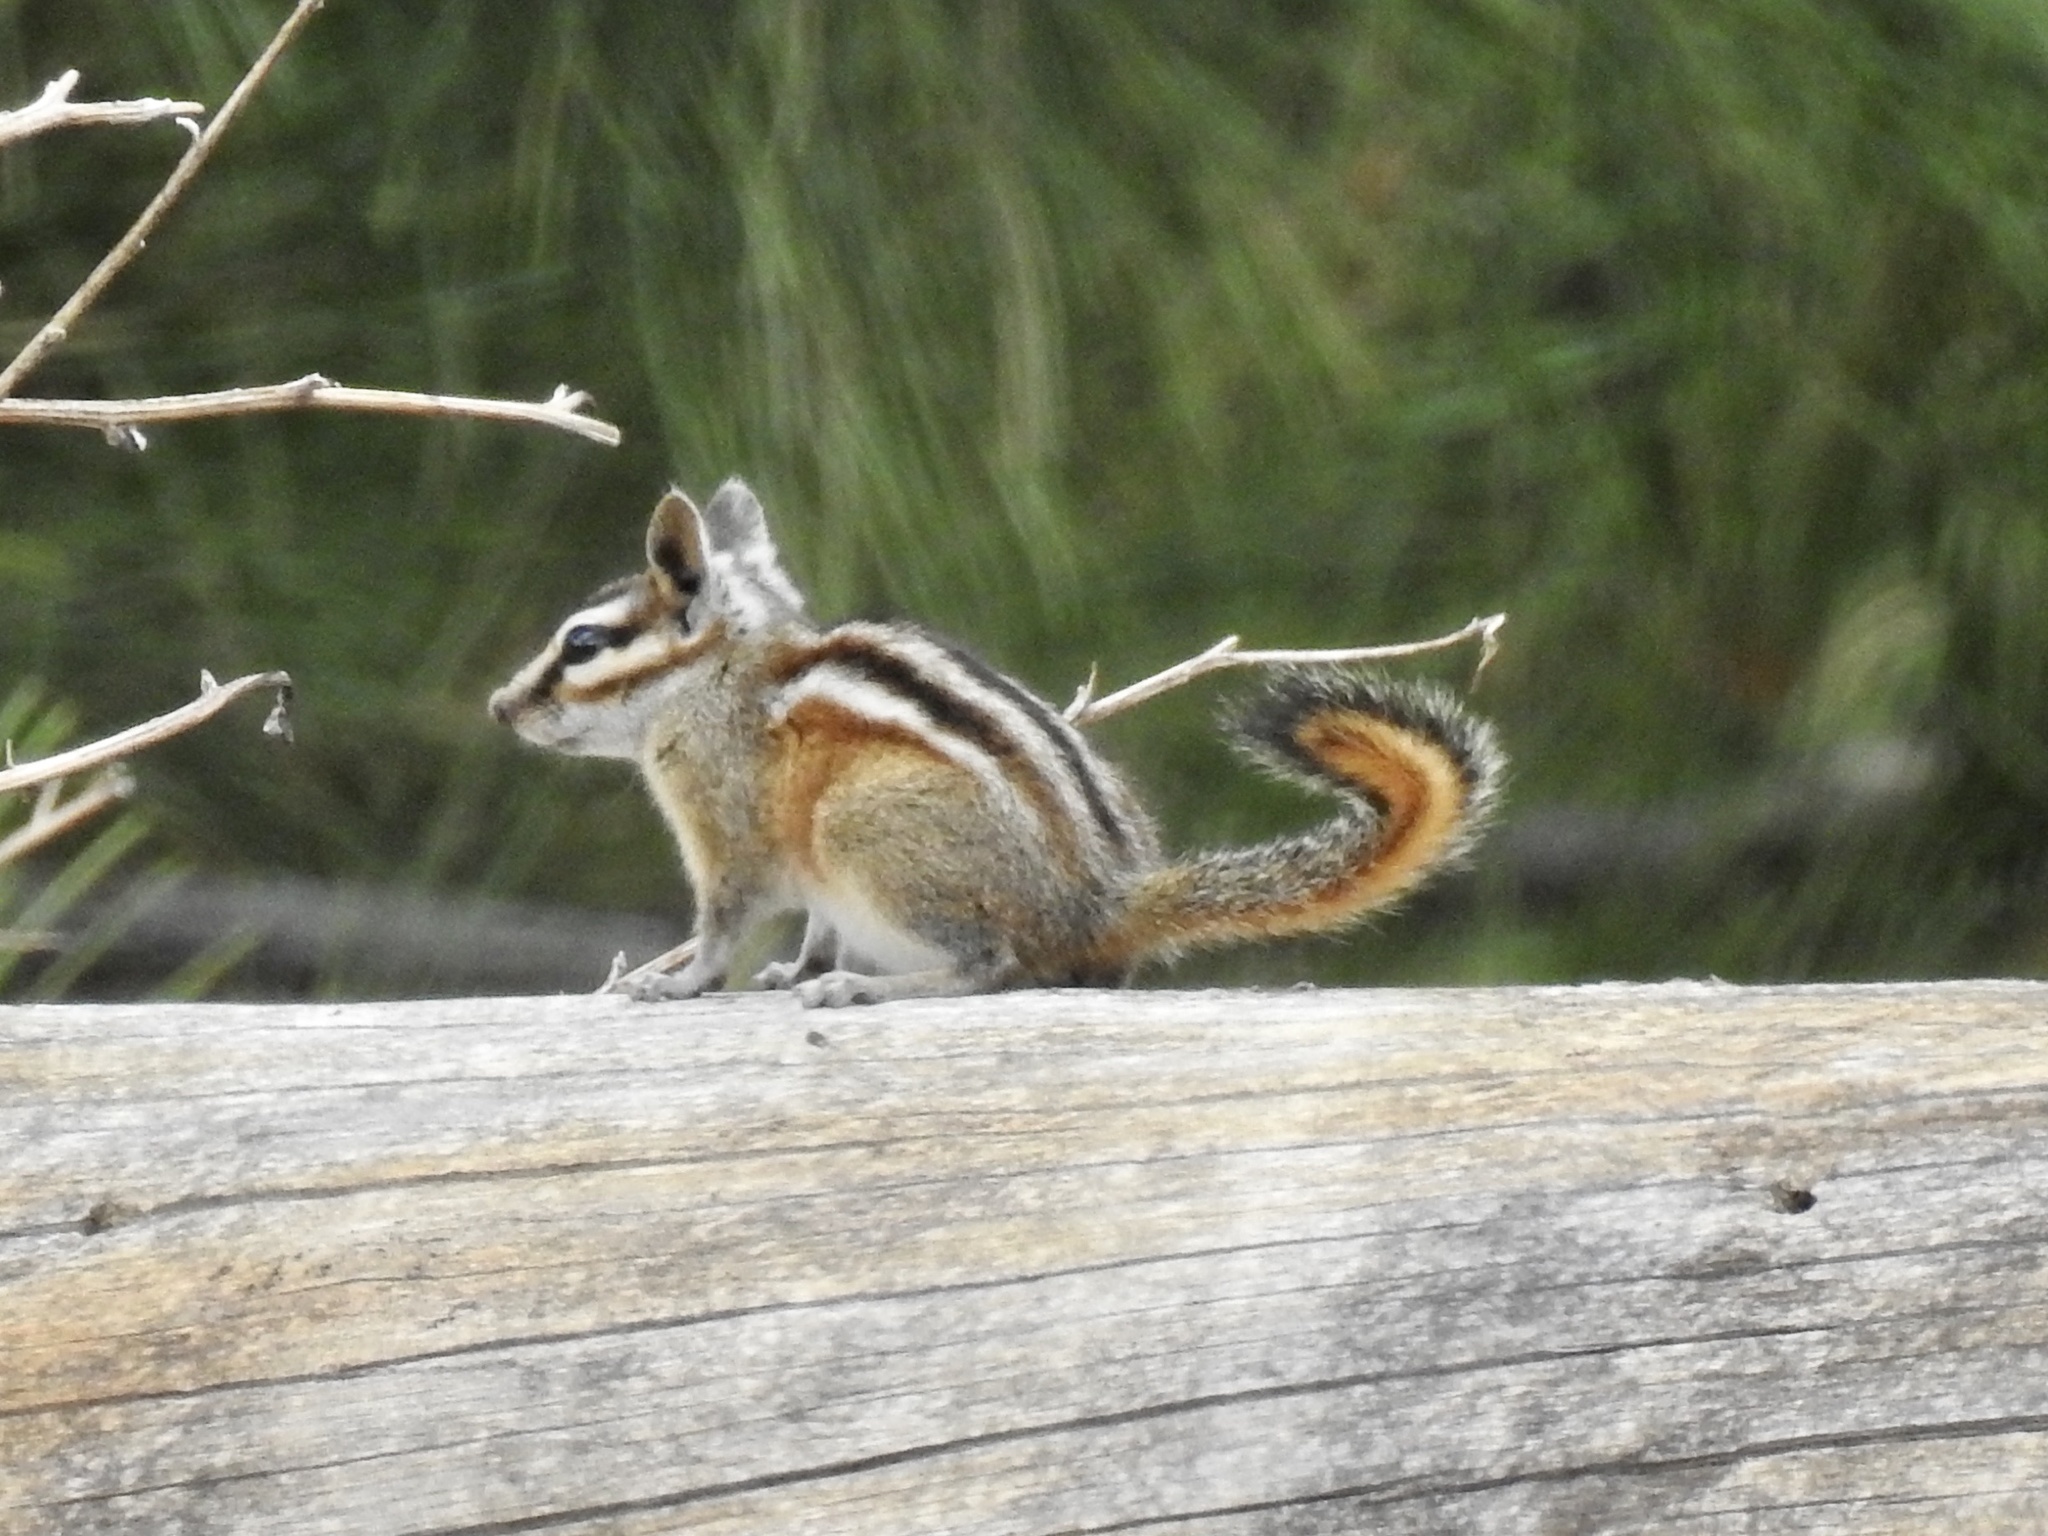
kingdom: Animalia
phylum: Chordata
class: Mammalia
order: Rodentia
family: Sciuridae
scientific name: Sciuridae
